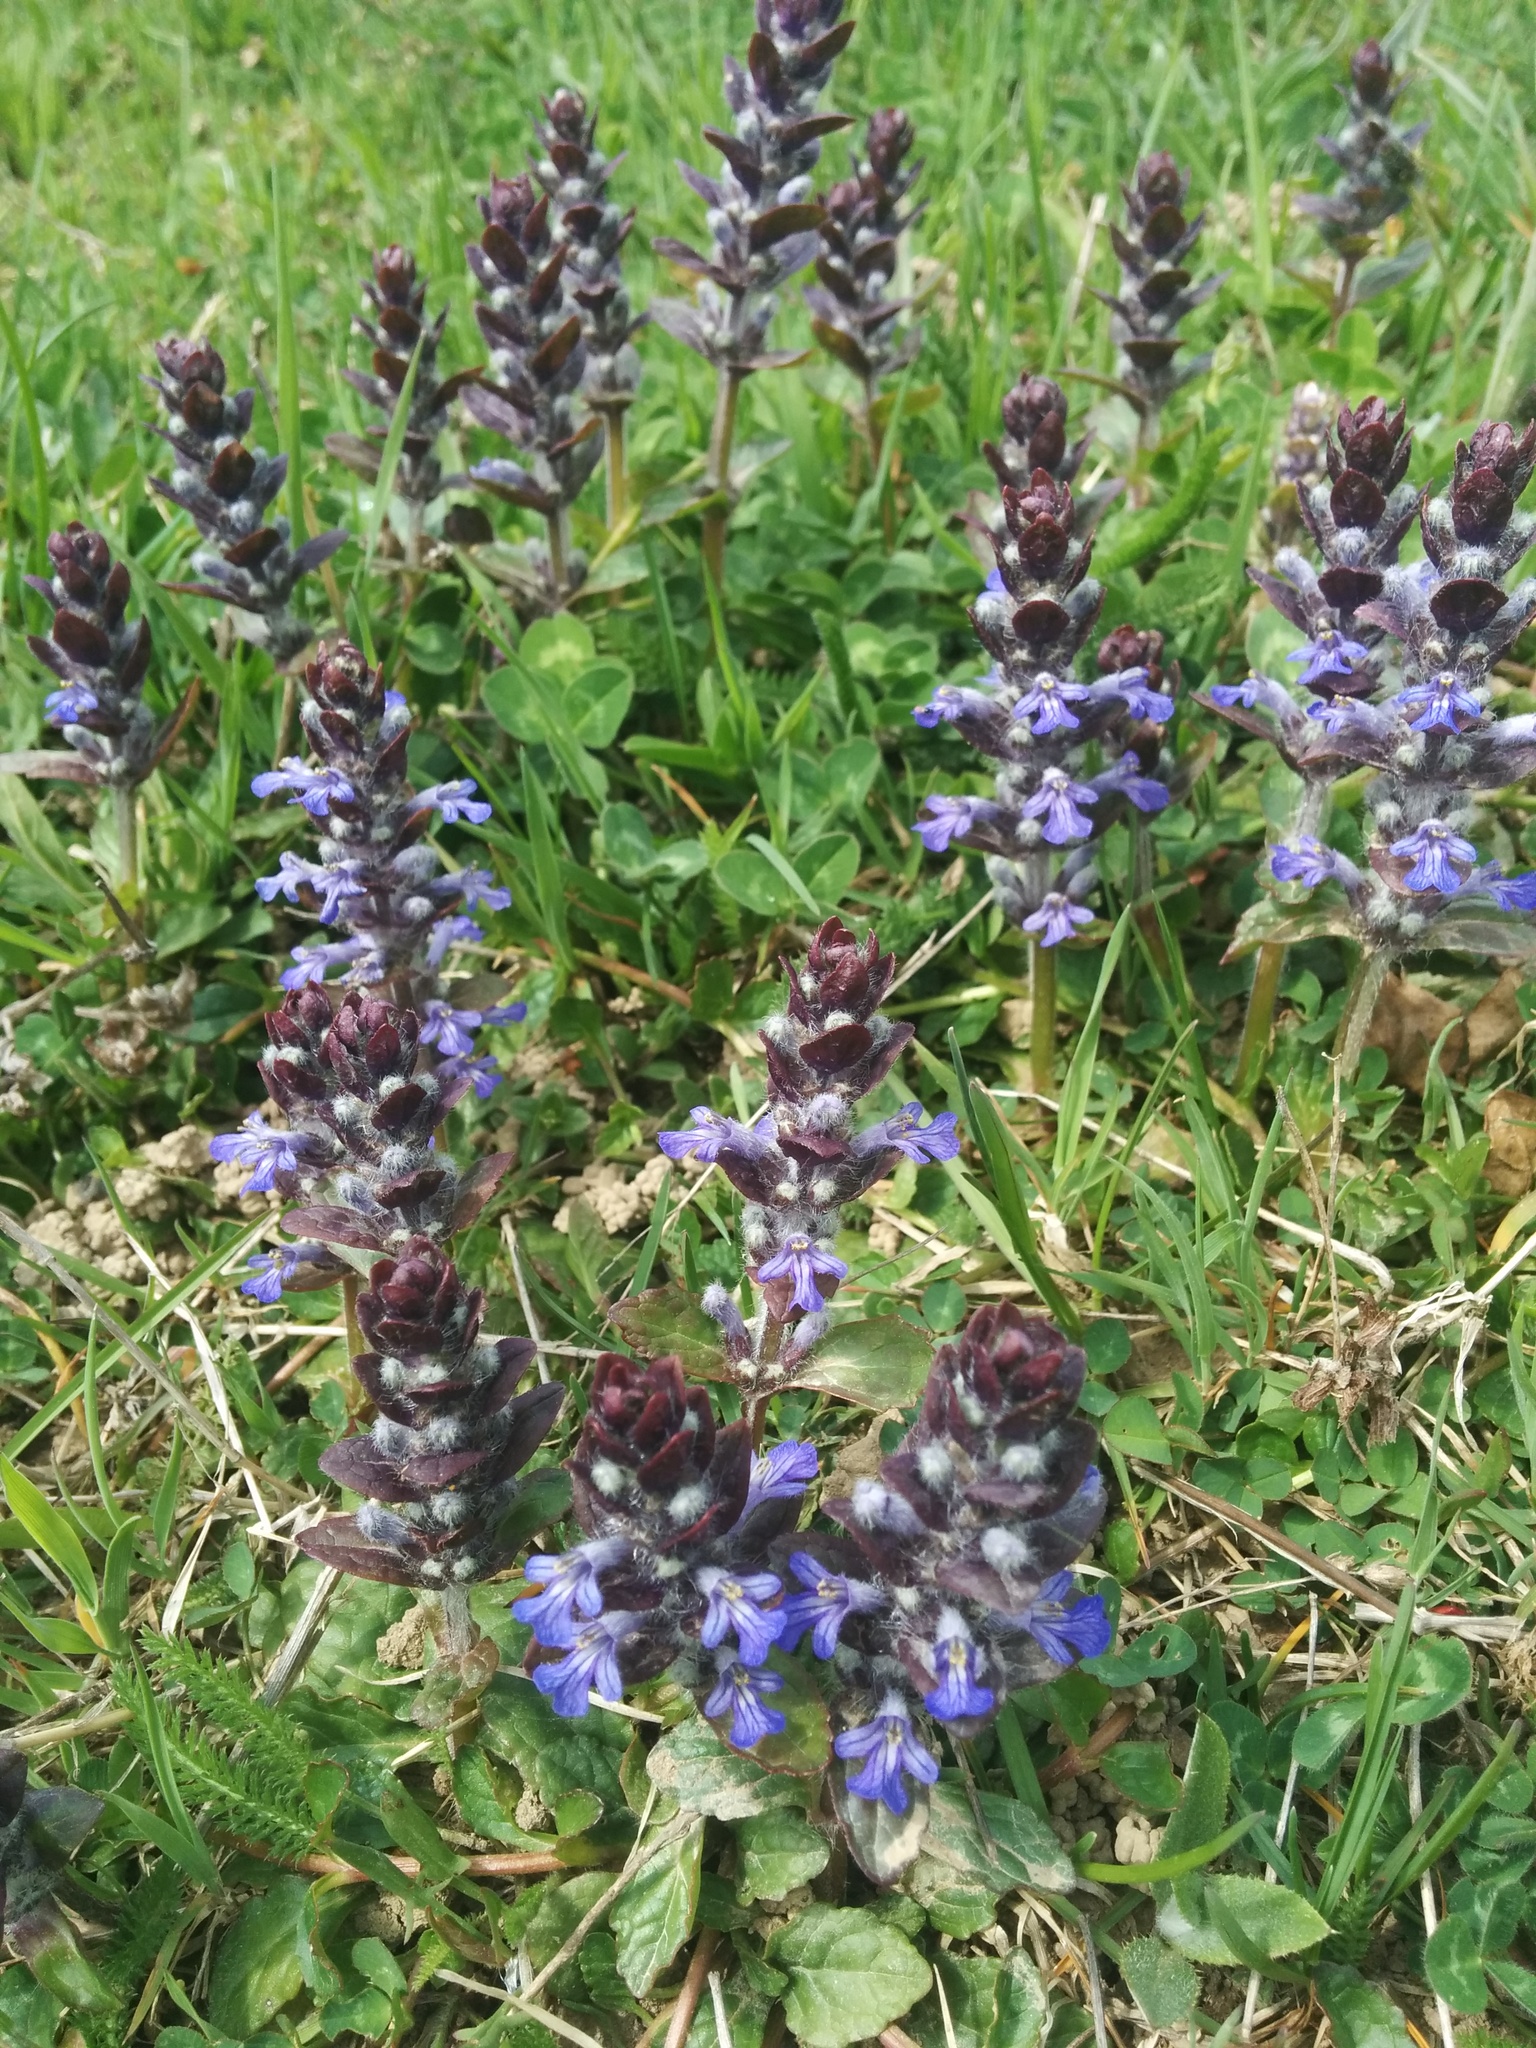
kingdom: Plantae
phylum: Tracheophyta
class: Magnoliopsida
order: Lamiales
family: Lamiaceae
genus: Ajuga
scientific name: Ajuga reptans
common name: Bugle
